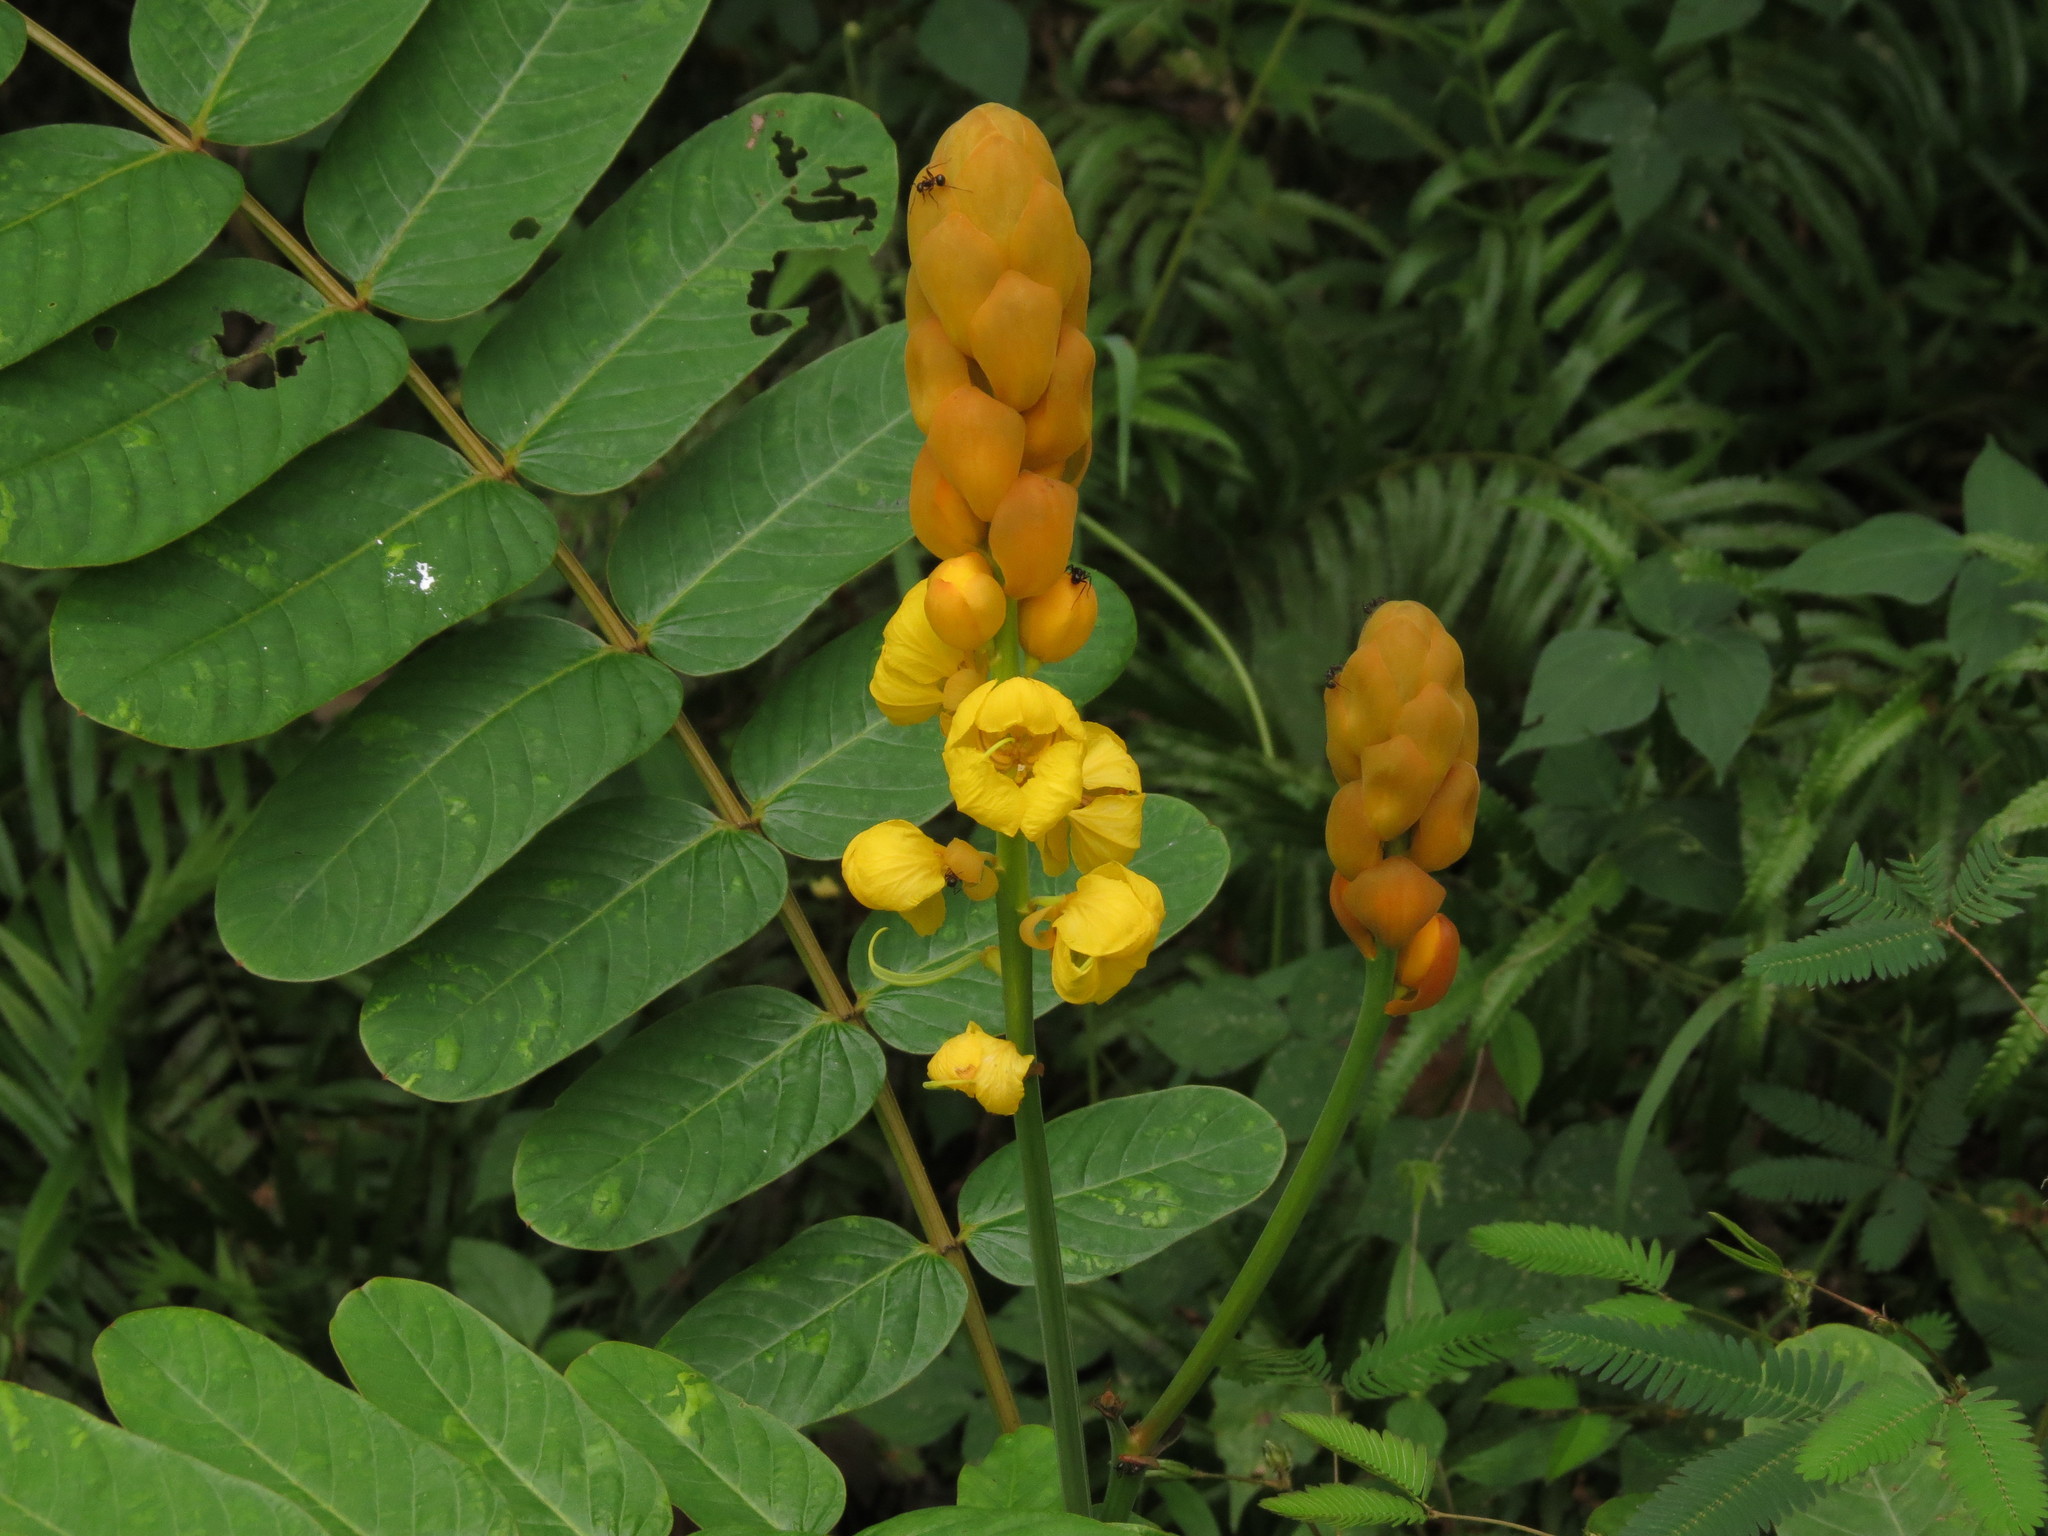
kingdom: Plantae
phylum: Tracheophyta
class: Magnoliopsida
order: Fabales
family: Fabaceae
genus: Senna
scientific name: Senna alata
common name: Emperor's candlesticks
